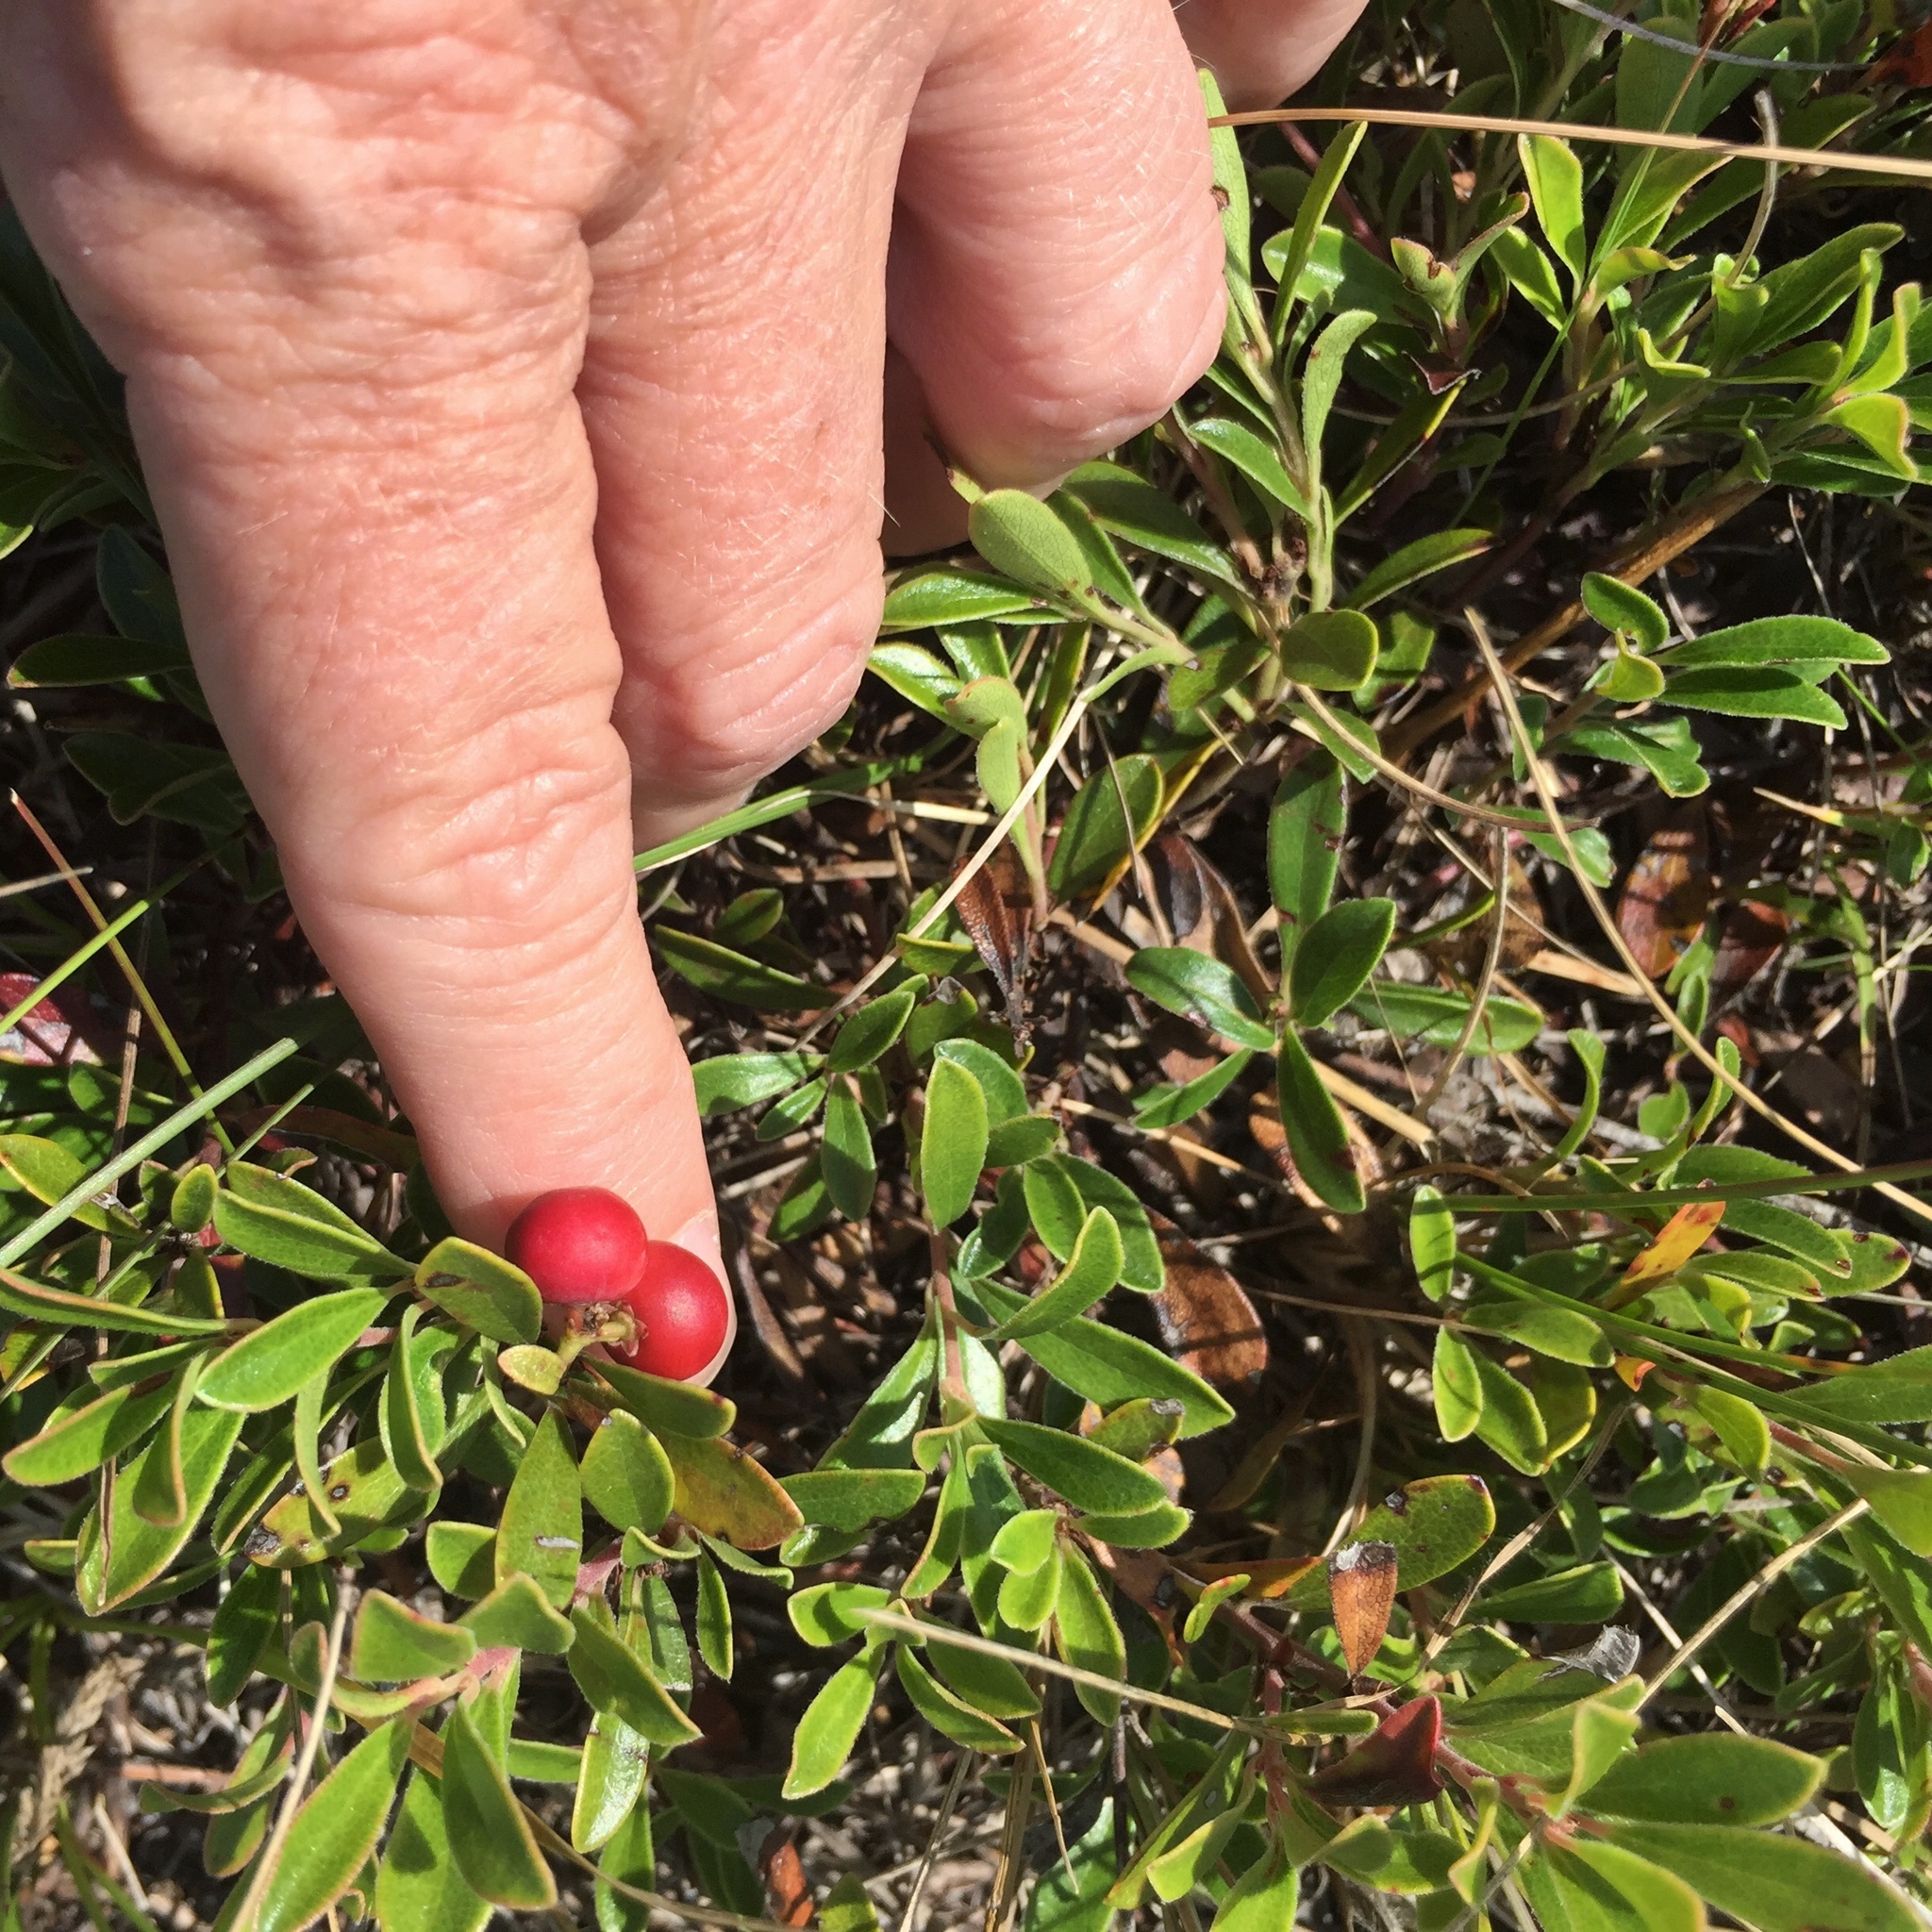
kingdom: Plantae
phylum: Tracheophyta
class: Magnoliopsida
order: Ericales
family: Ericaceae
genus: Arctostaphylos
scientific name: Arctostaphylos uva-ursi
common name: Bearberry
